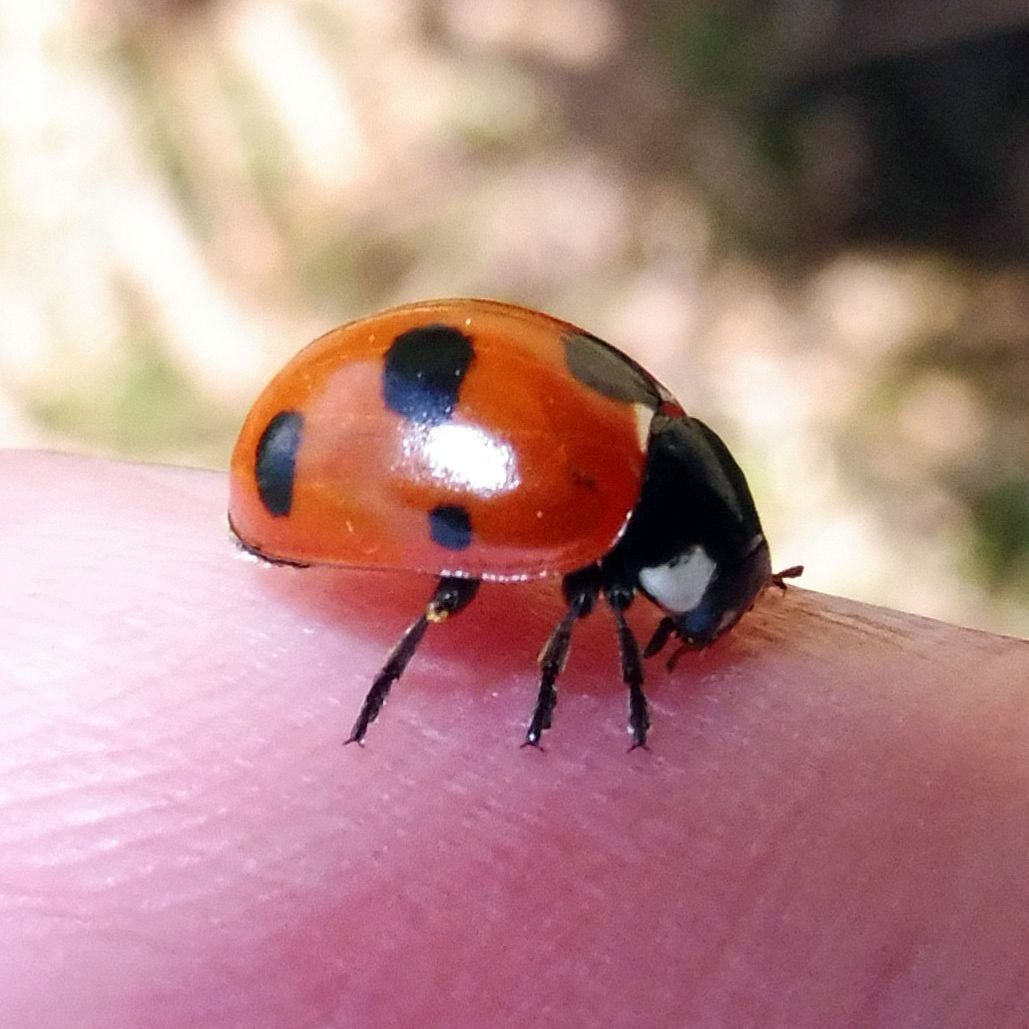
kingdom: Animalia
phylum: Arthropoda
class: Insecta
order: Coleoptera
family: Coccinellidae
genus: Coccinella
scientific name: Coccinella magnifica
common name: Scarce 7-spot ladybird
